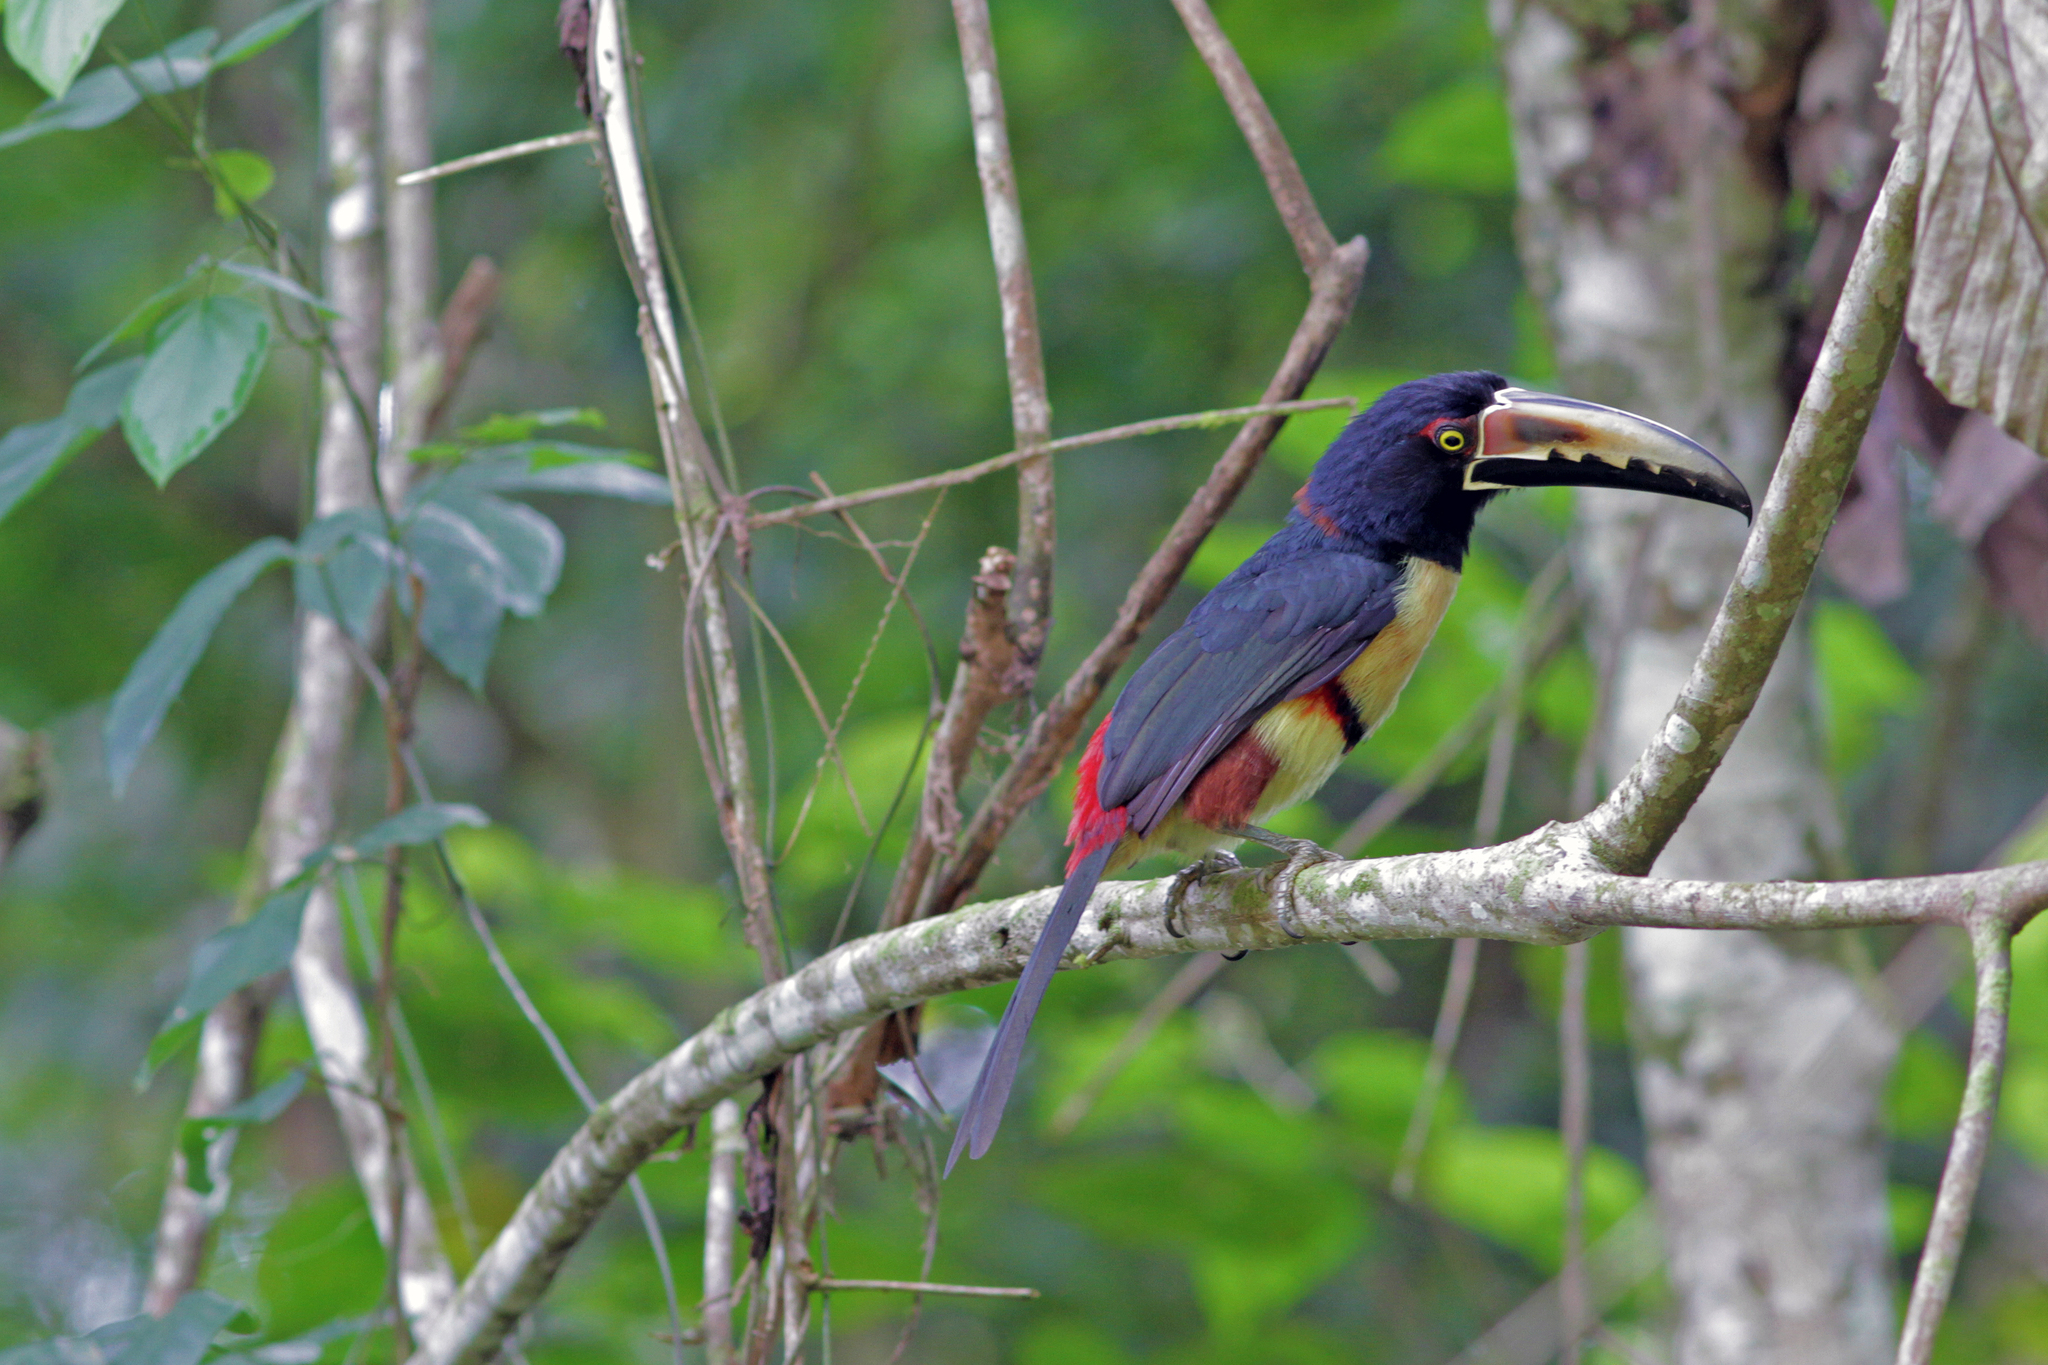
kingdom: Animalia
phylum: Chordata
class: Aves
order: Piciformes
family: Ramphastidae
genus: Pteroglossus
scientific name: Pteroglossus torquatus
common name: Collared aracari
